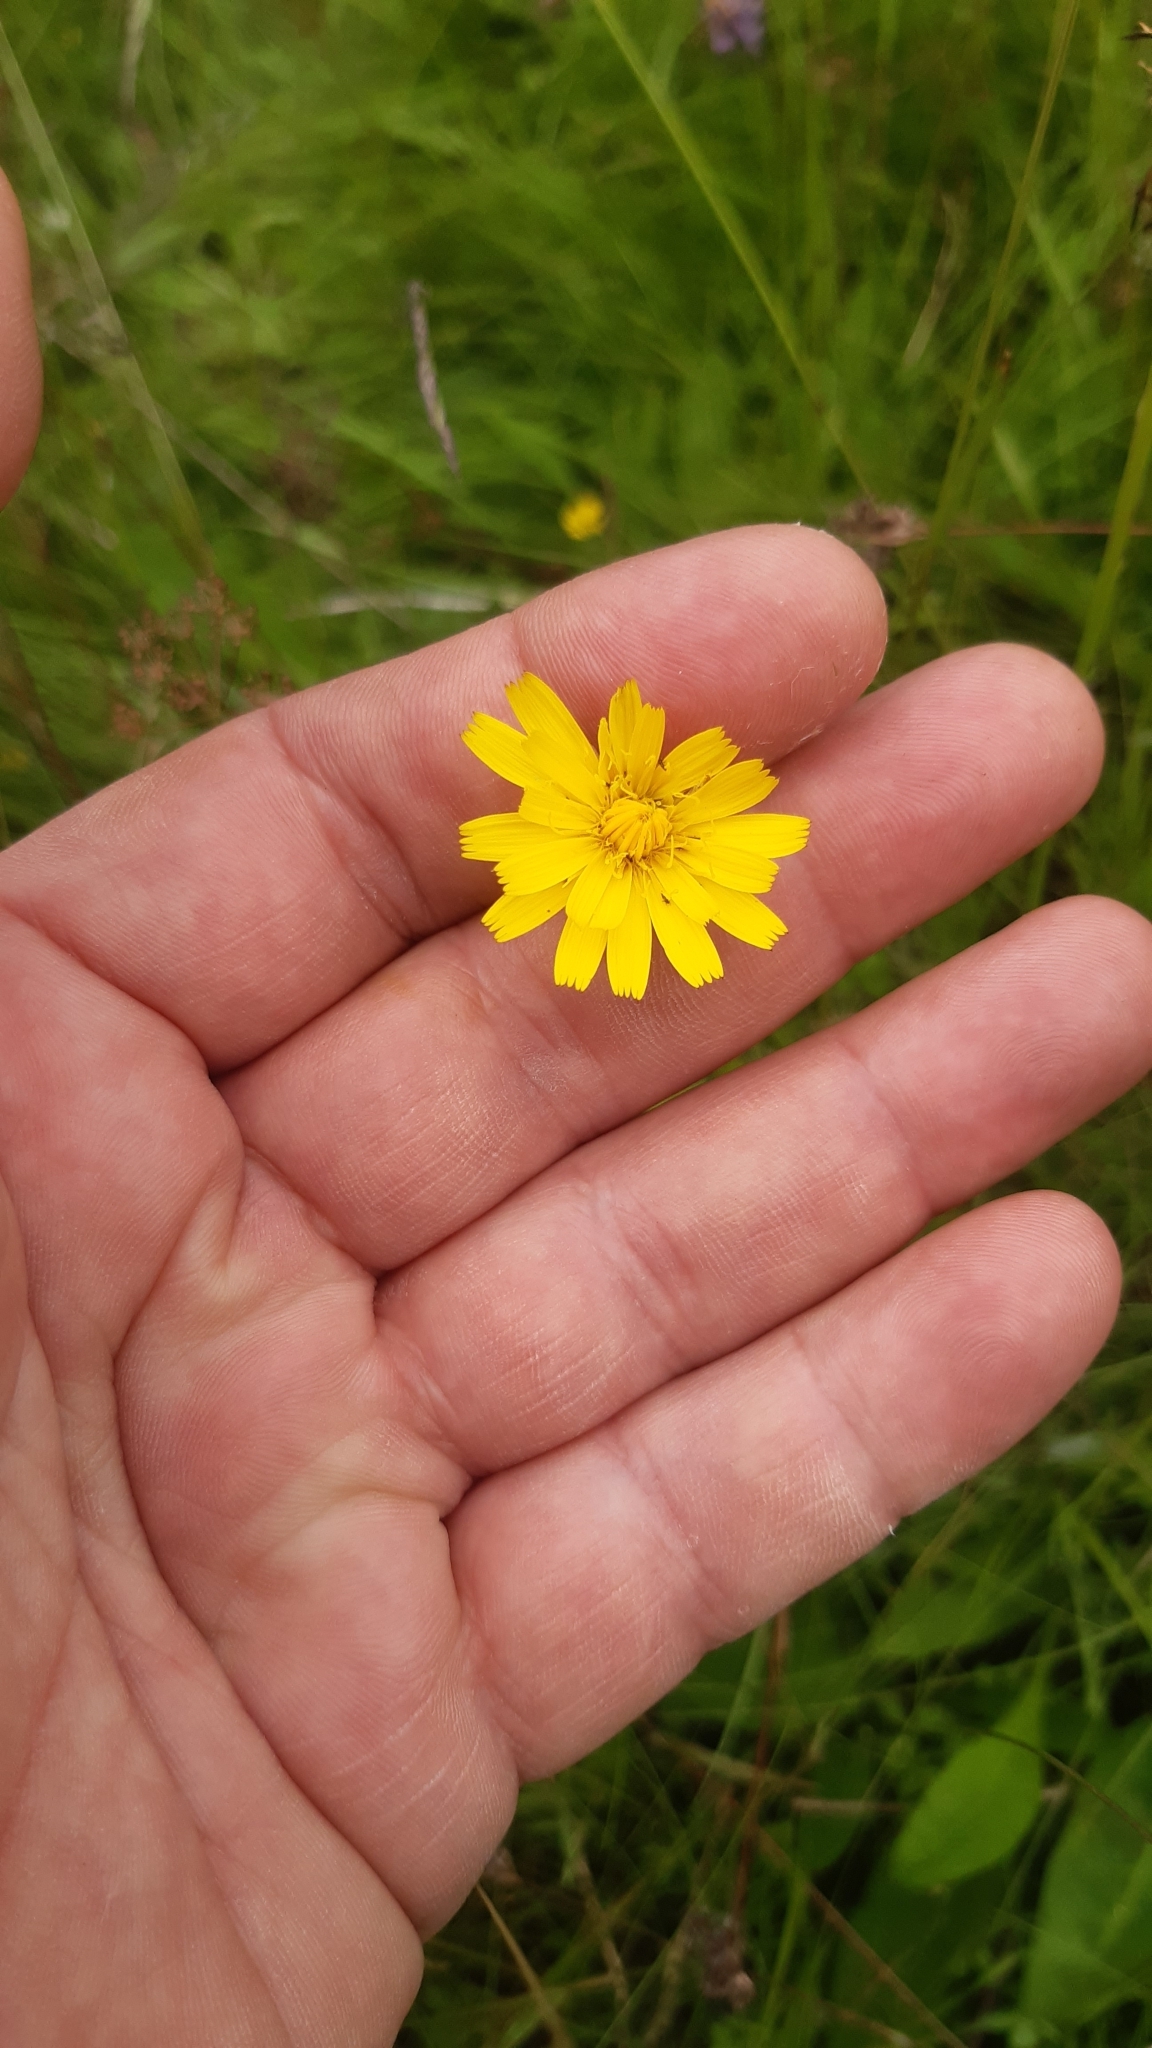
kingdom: Plantae
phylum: Tracheophyta
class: Magnoliopsida
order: Asterales
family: Asteraceae
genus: Hypochaeris
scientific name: Hypochaeris radicata
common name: Flatweed
